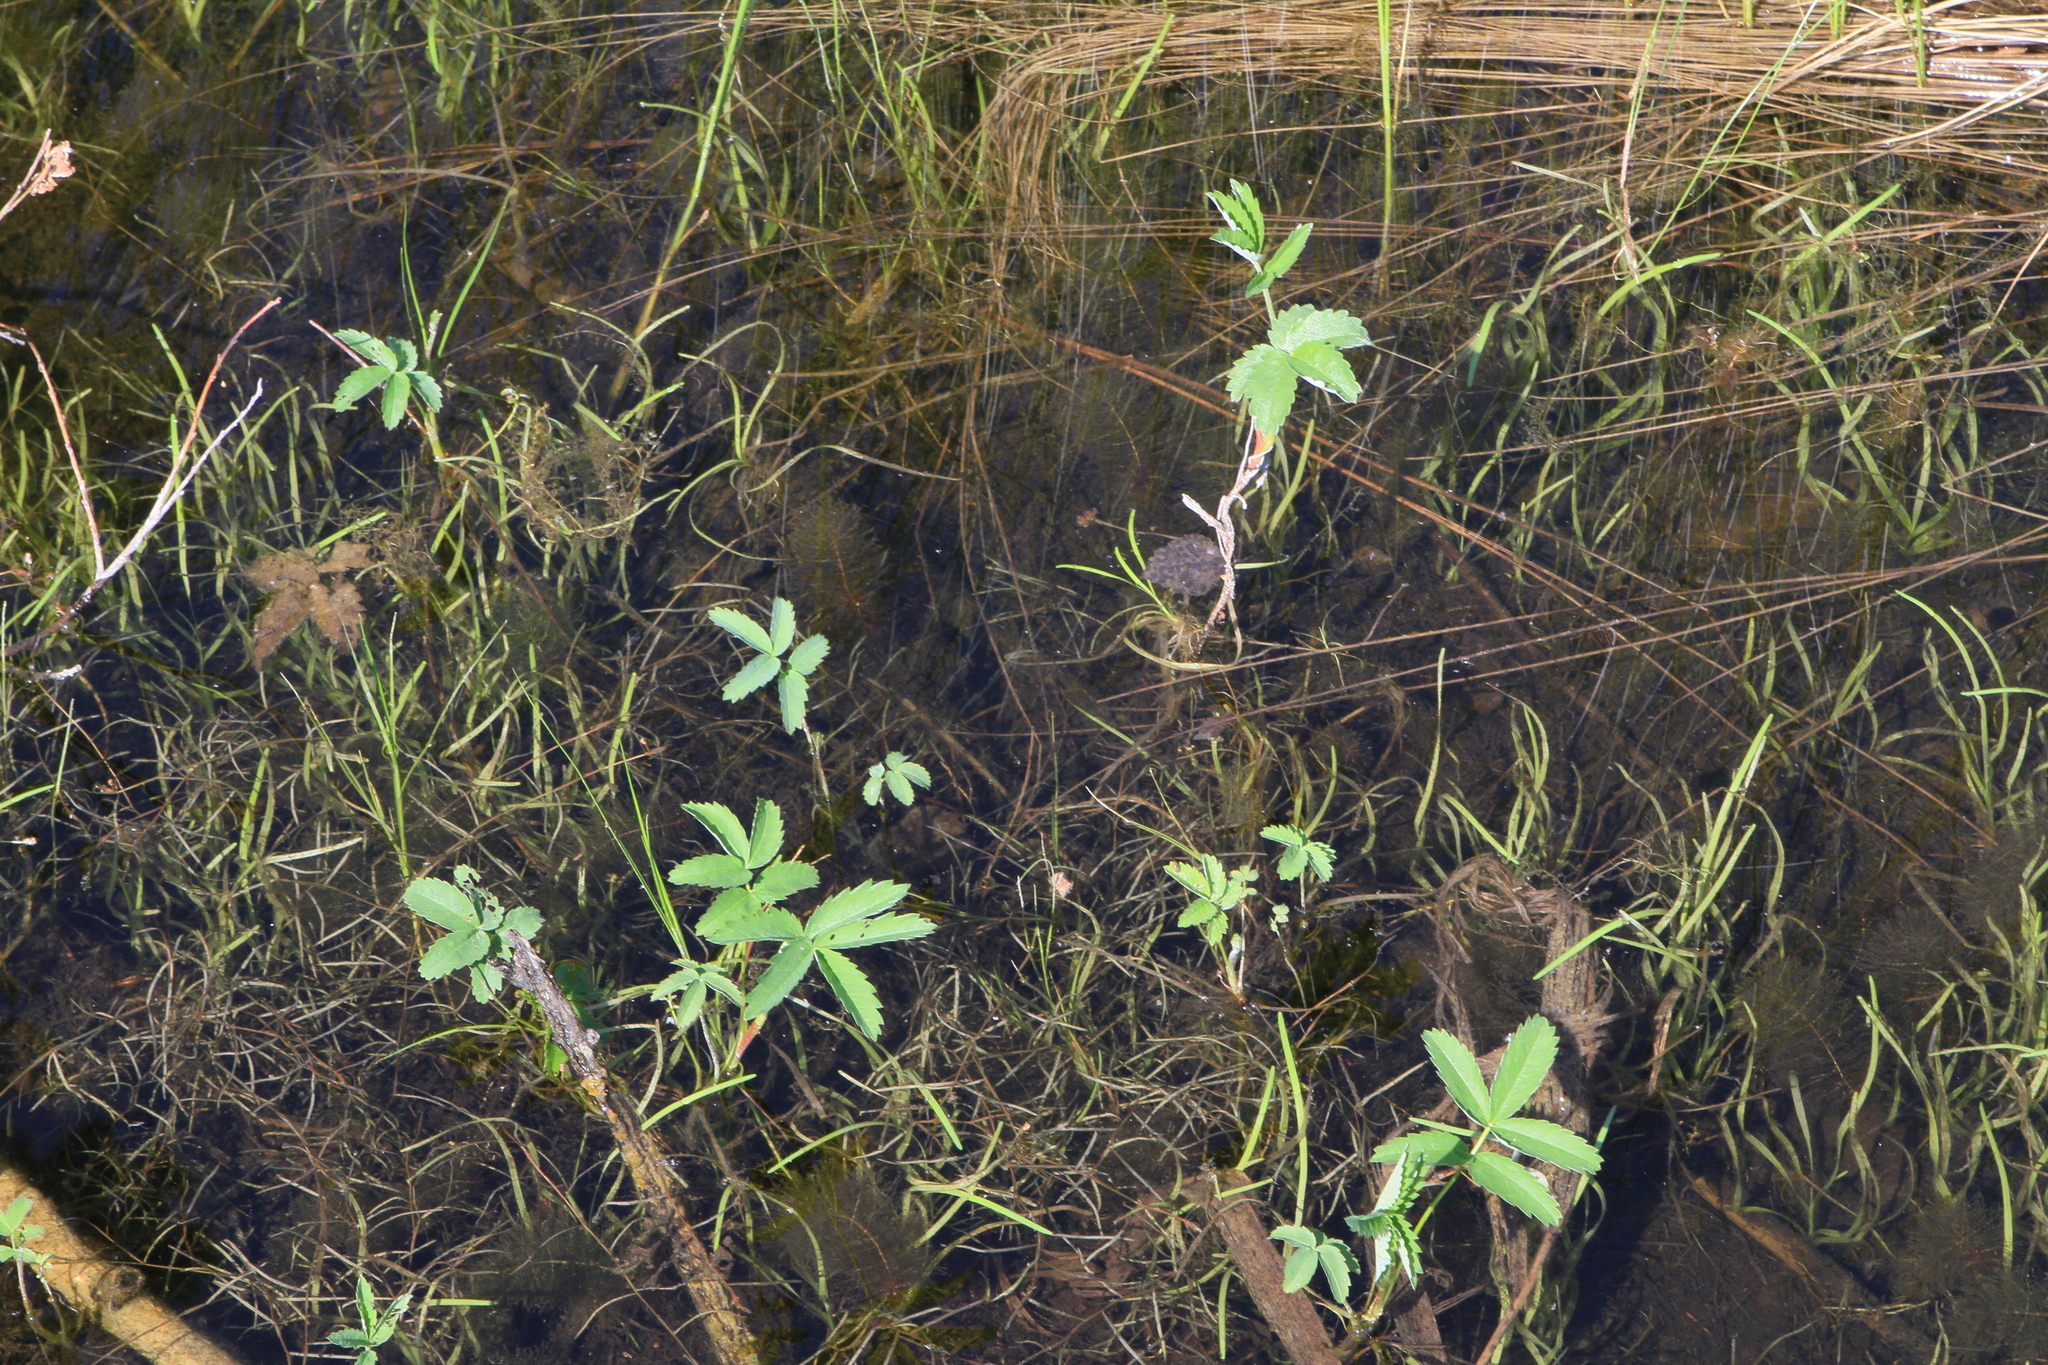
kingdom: Plantae
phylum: Tracheophyta
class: Magnoliopsida
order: Rosales
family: Rosaceae
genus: Comarum
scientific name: Comarum palustre
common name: Marsh cinquefoil
